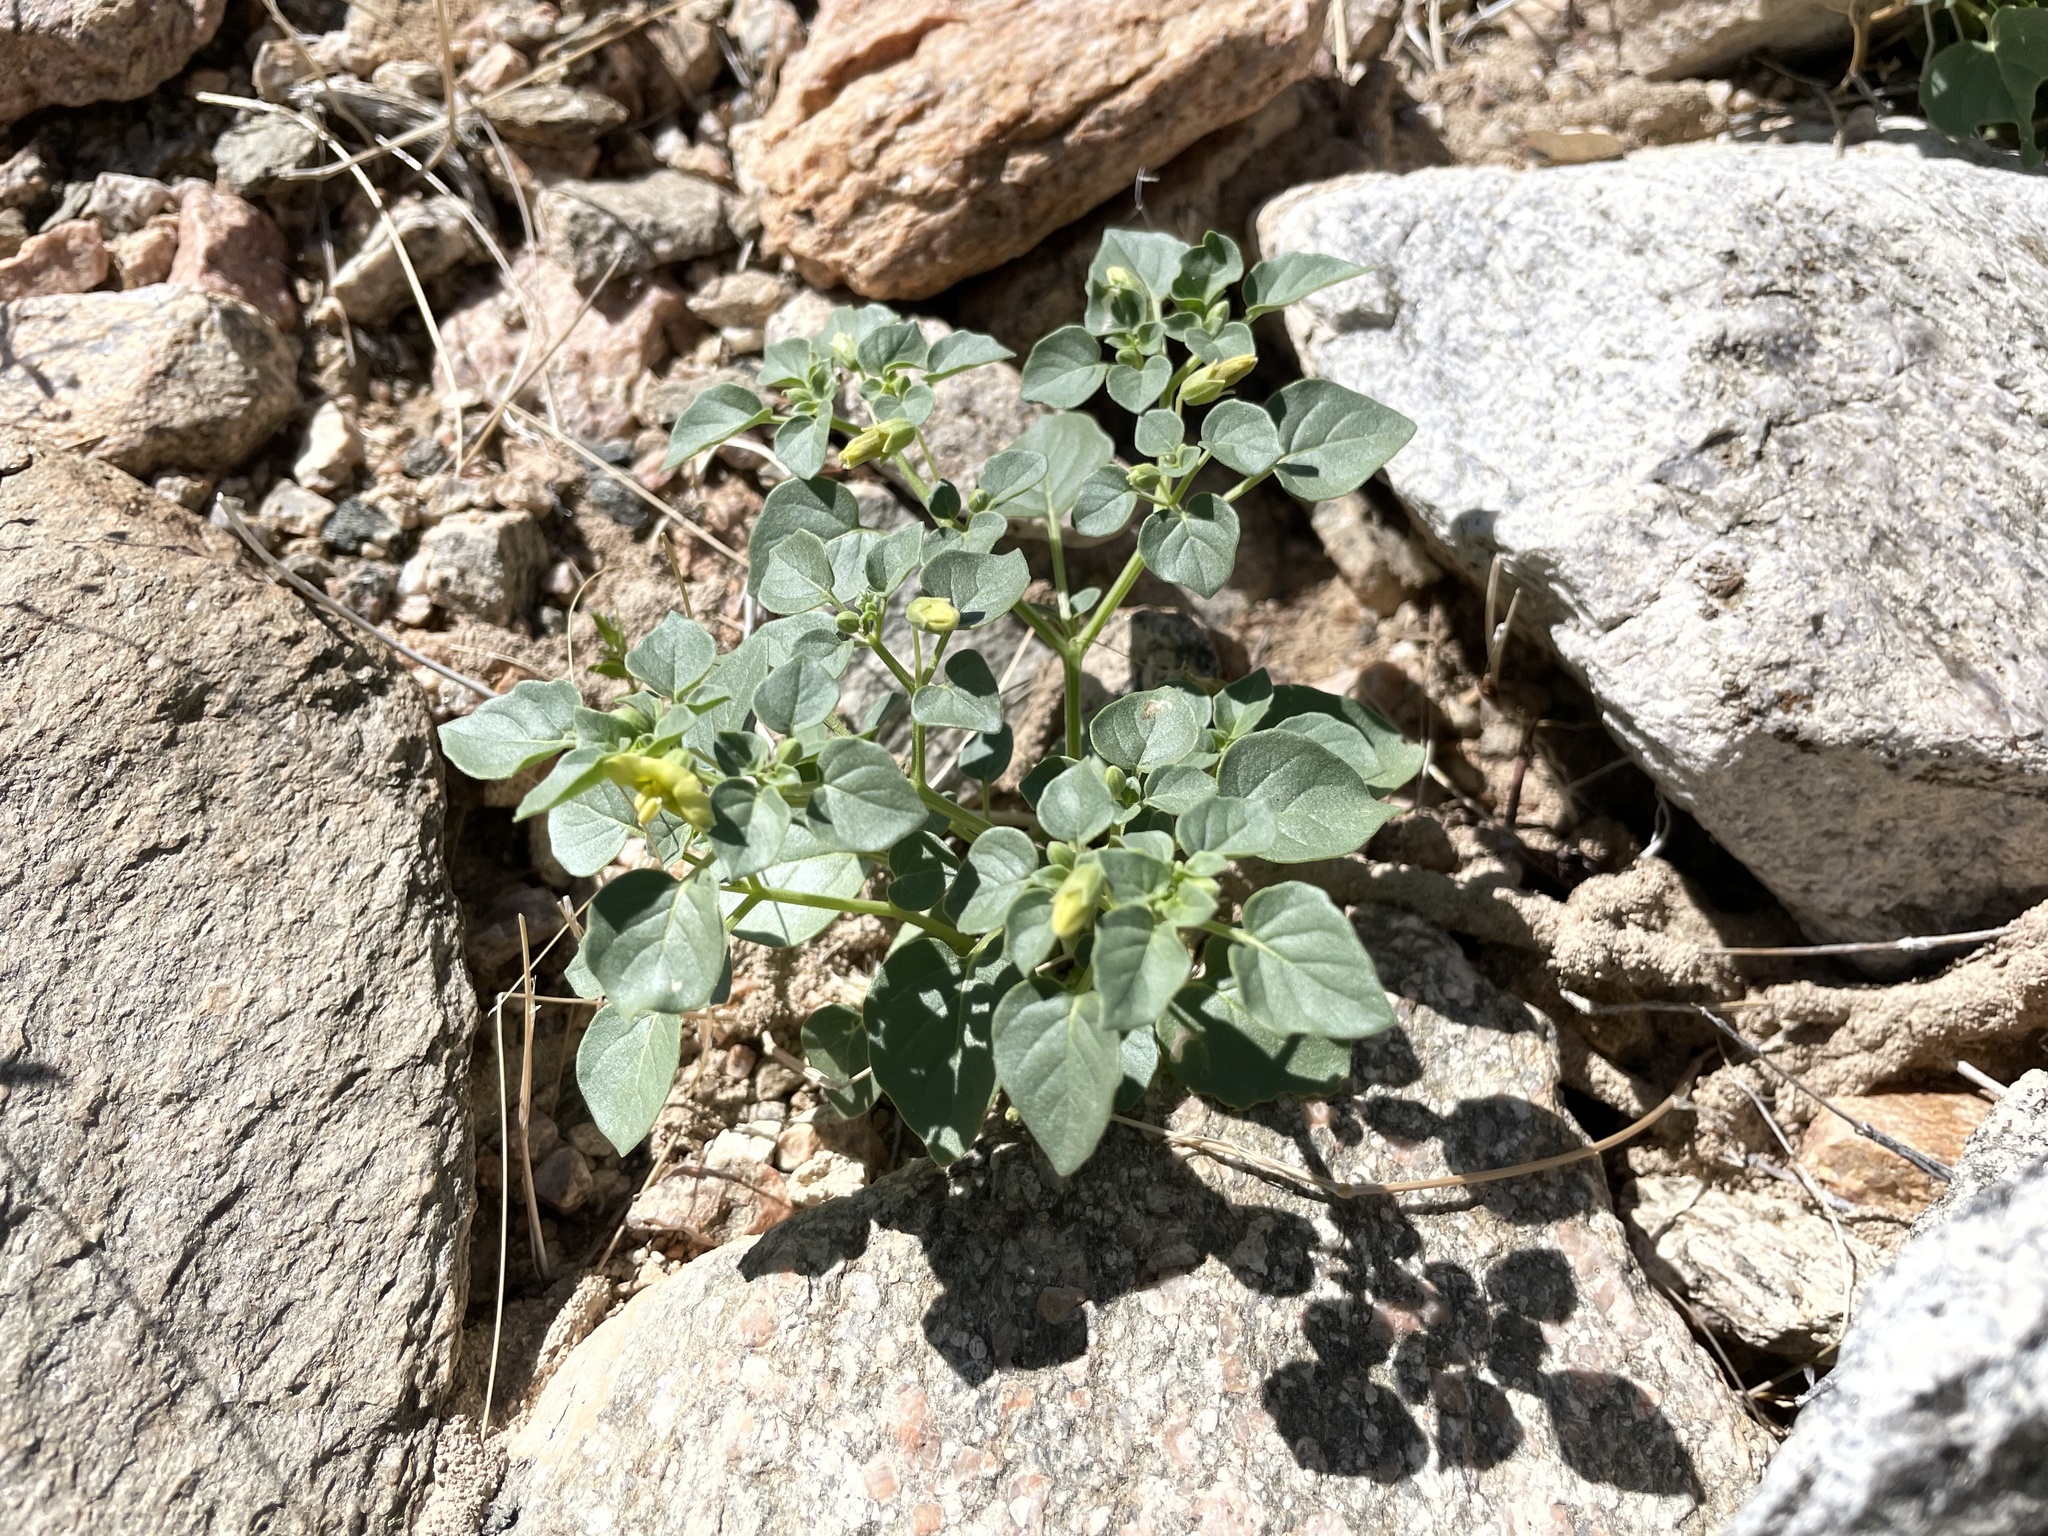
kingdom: Plantae
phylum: Tracheophyta
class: Magnoliopsida
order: Solanales
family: Solanaceae
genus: Physalis
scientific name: Physalis crassifolia
